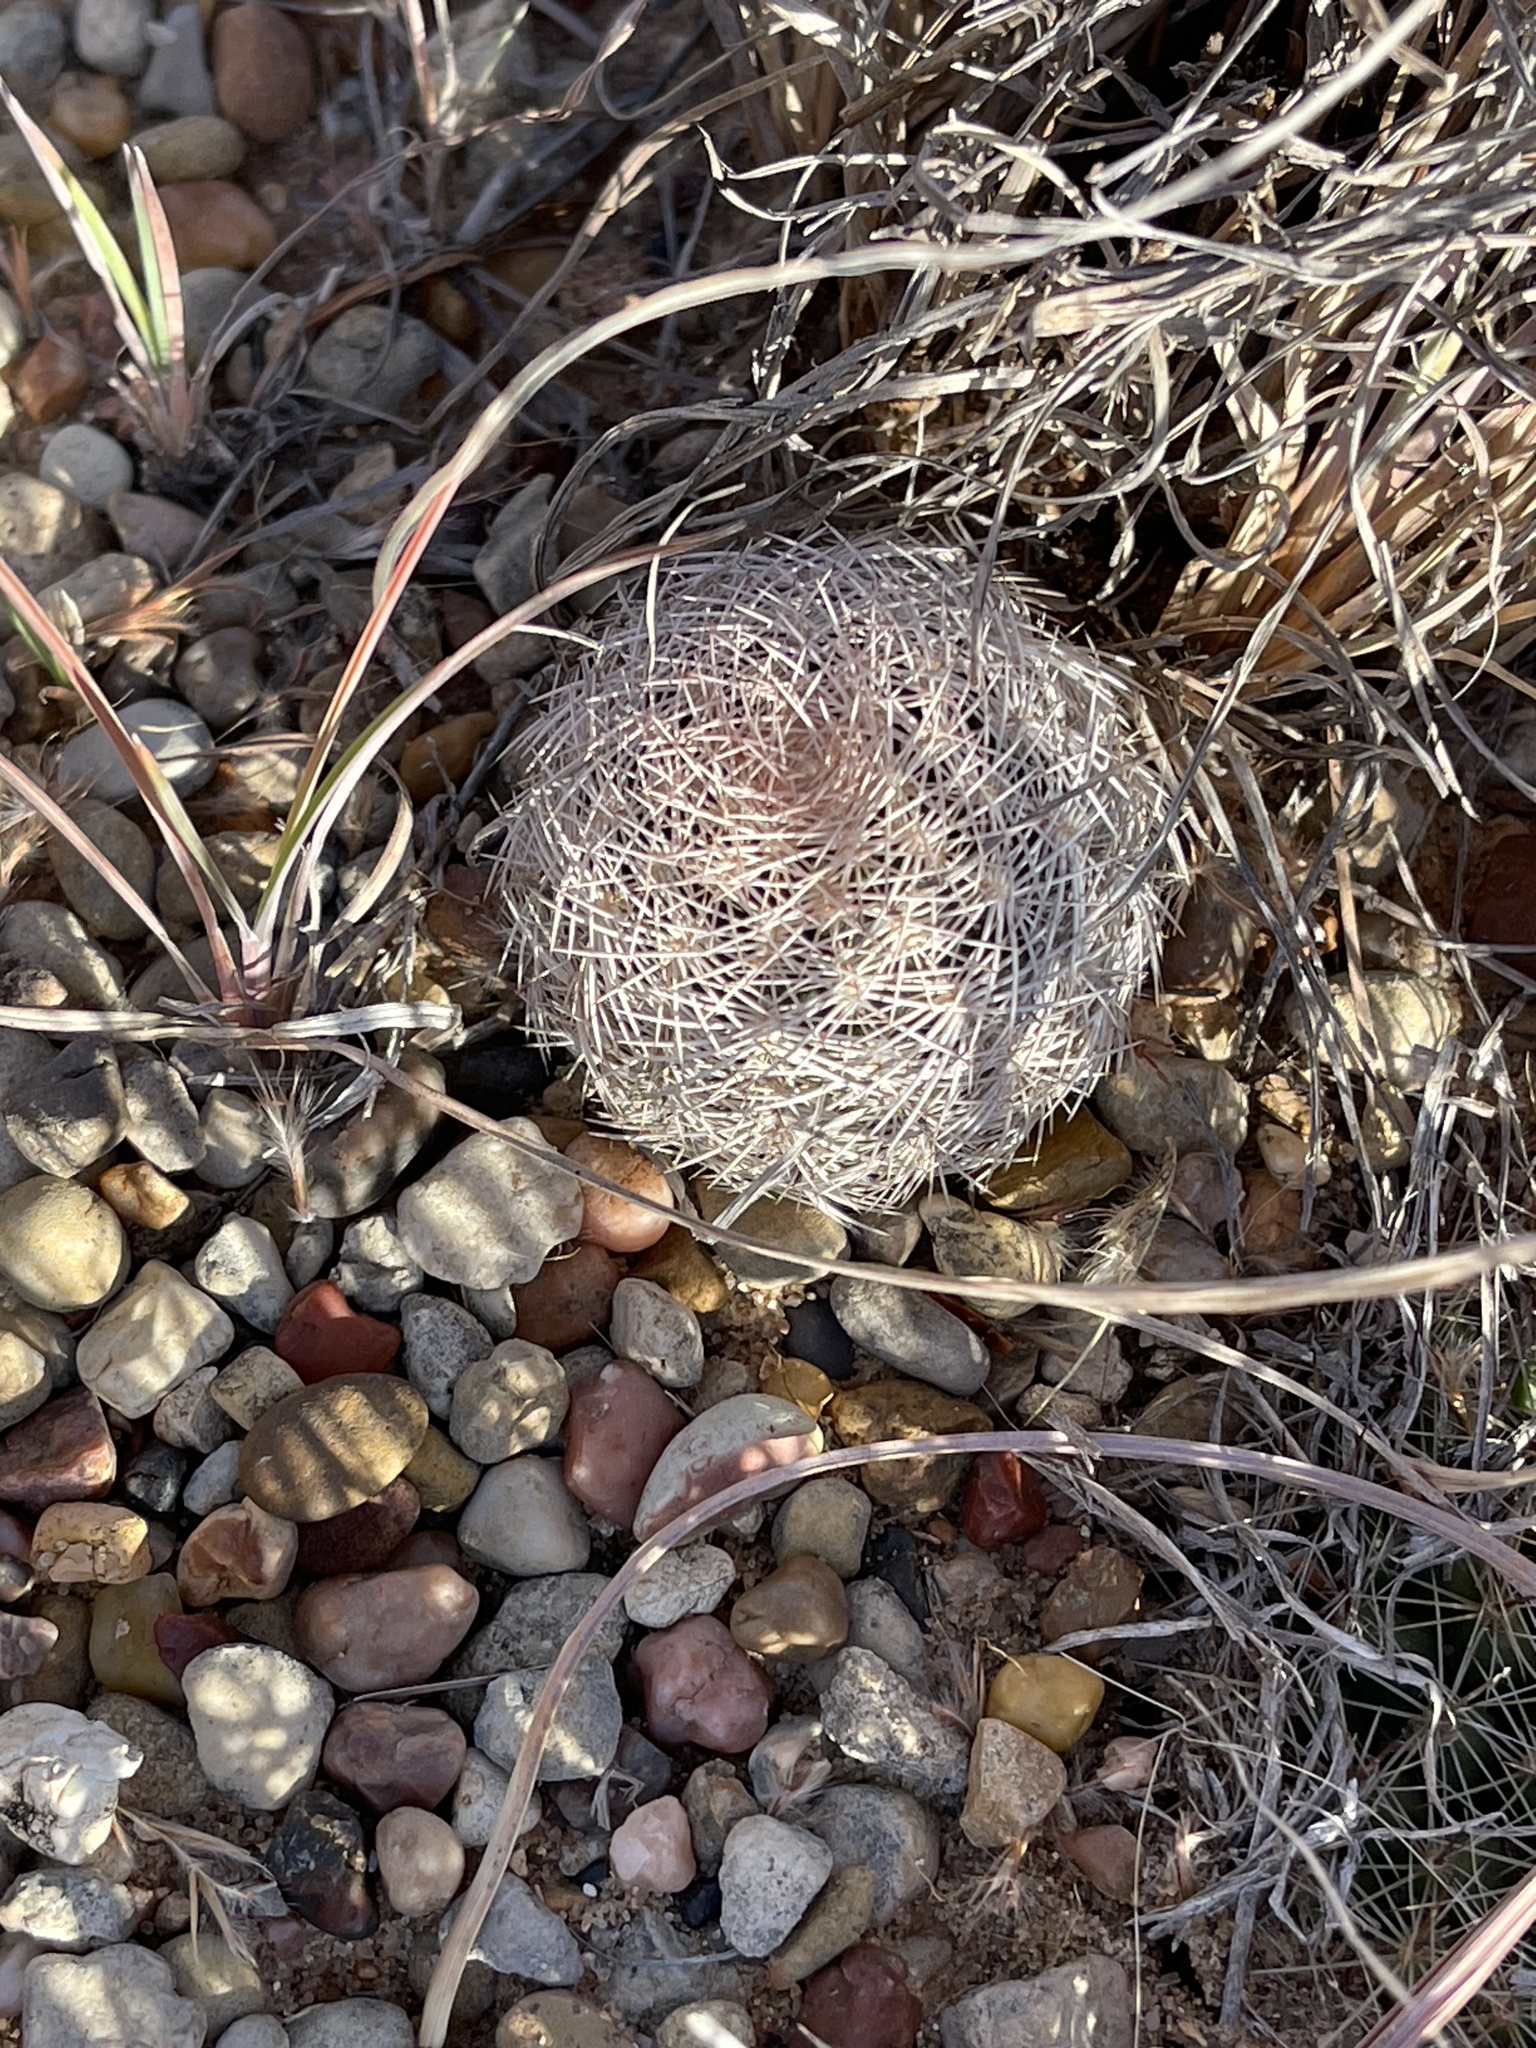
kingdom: Plantae
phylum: Tracheophyta
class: Magnoliopsida
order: Caryophyllales
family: Cactaceae
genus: Echinocereus
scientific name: Echinocereus reichenbachii
